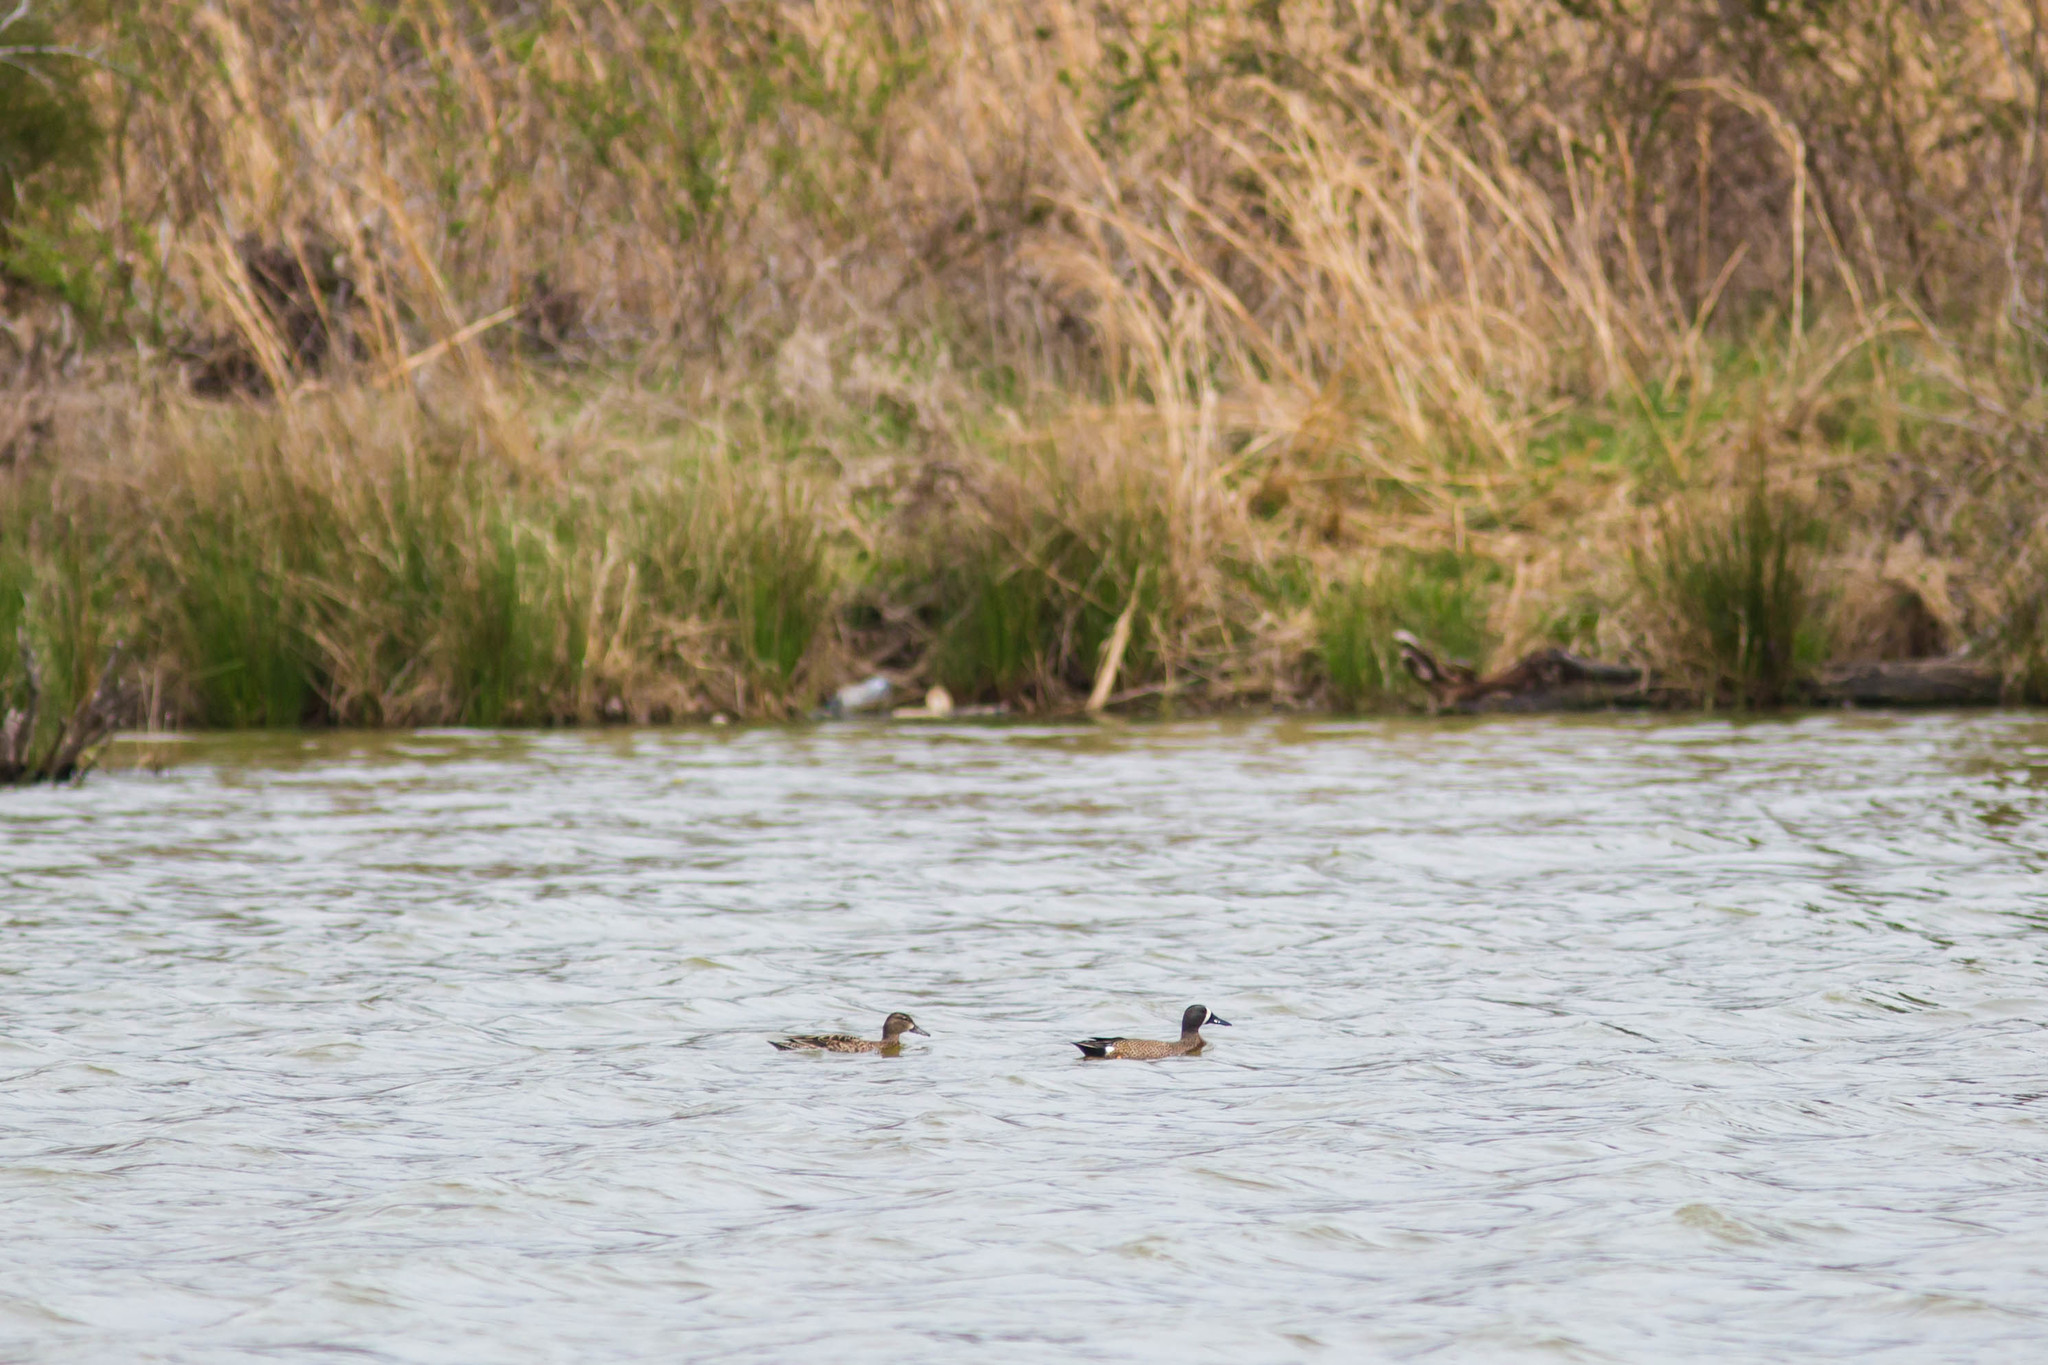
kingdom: Animalia
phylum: Chordata
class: Aves
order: Anseriformes
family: Anatidae
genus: Spatula
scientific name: Spatula discors
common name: Blue-winged teal
